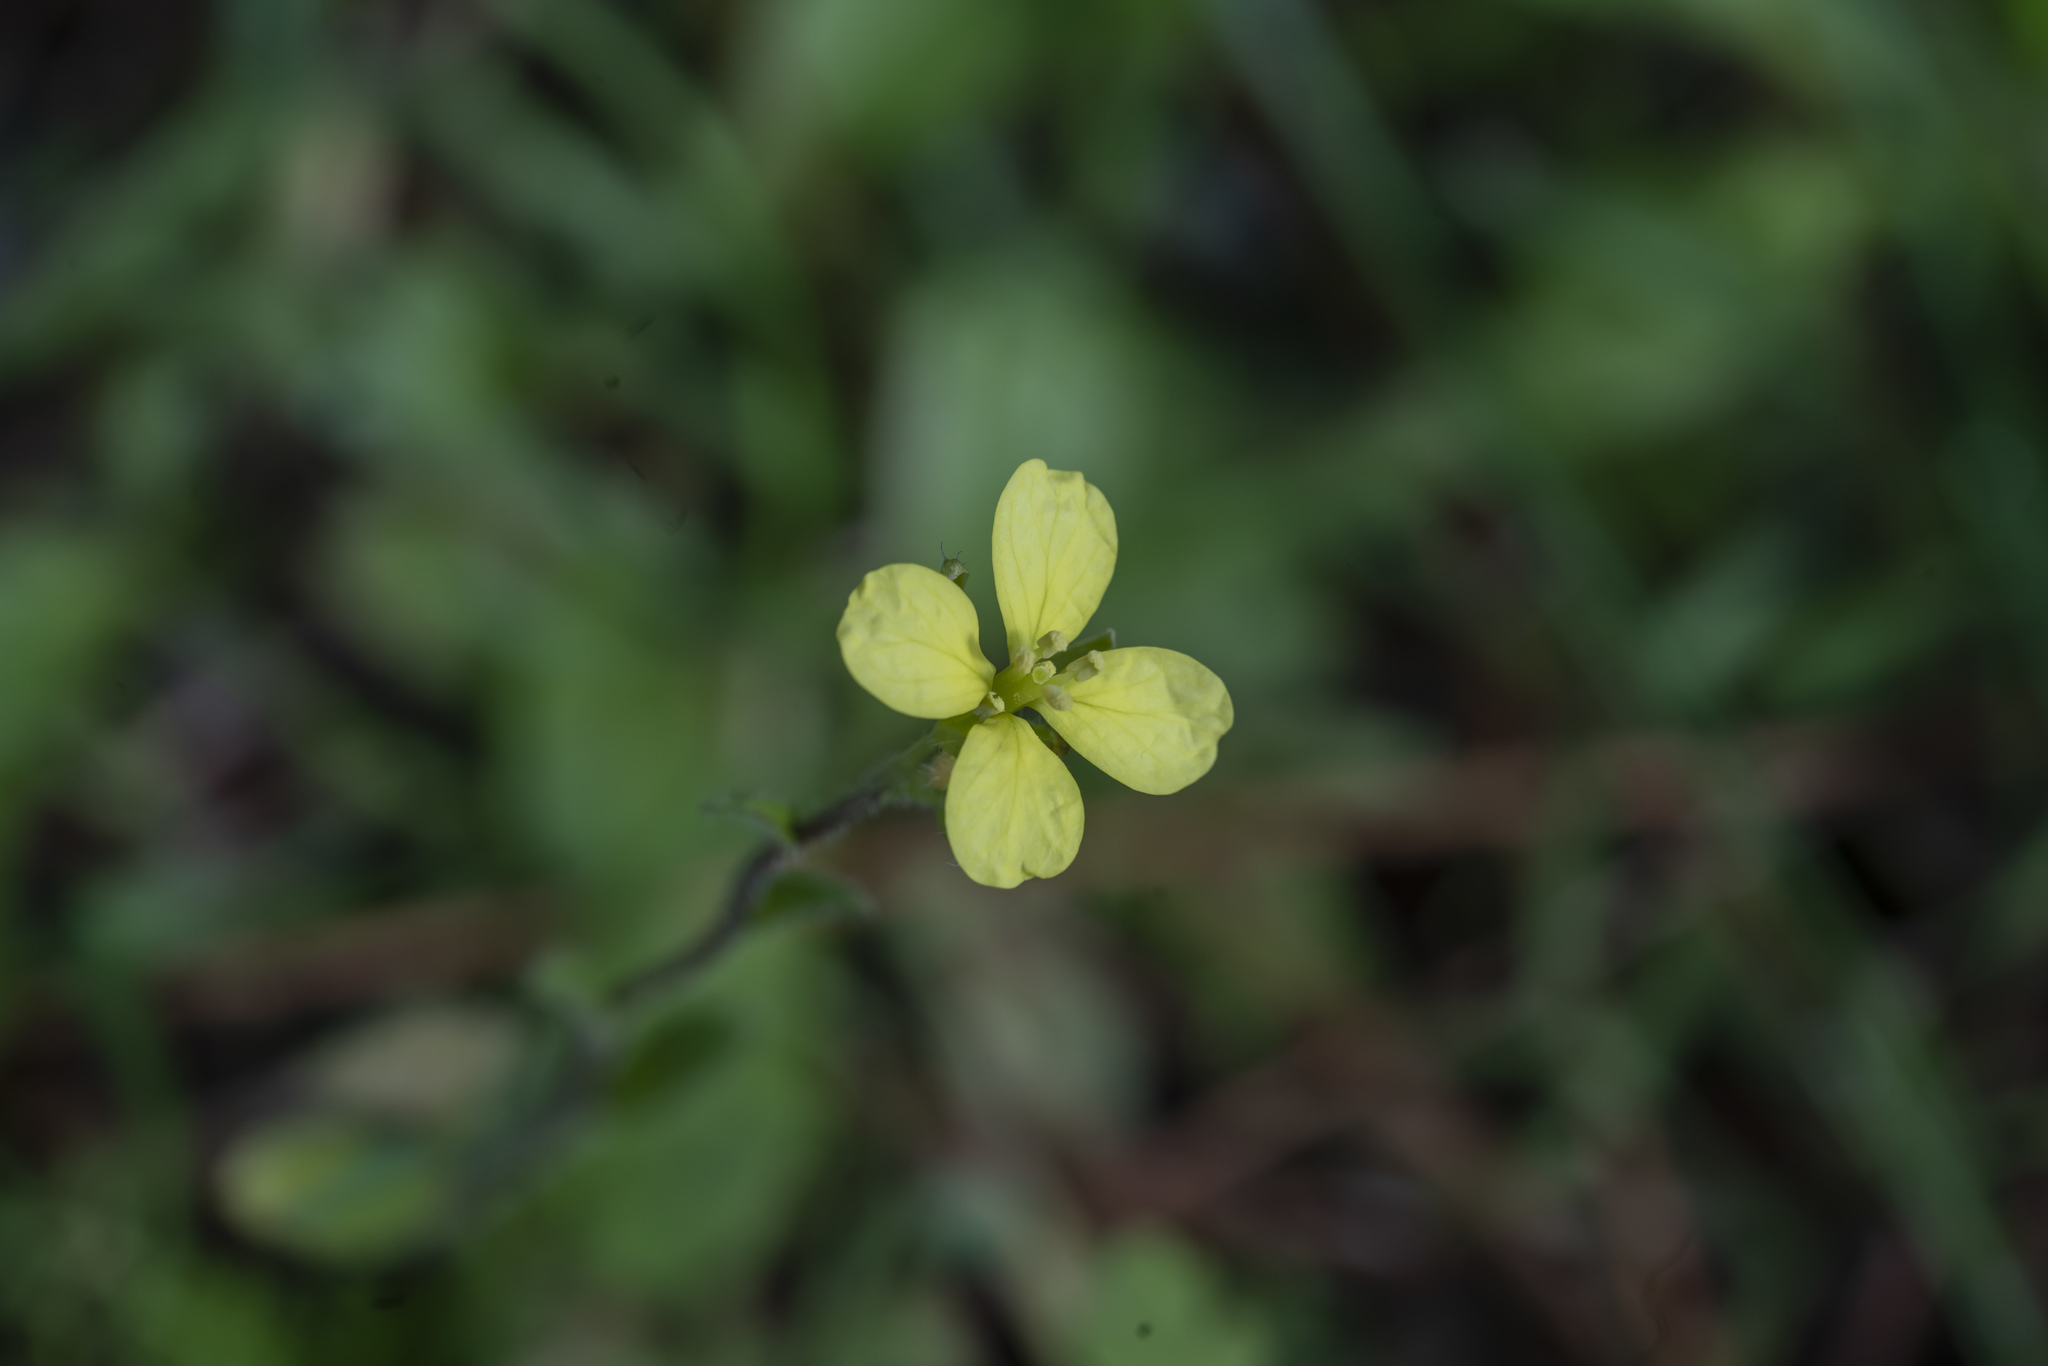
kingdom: Plantae
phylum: Tracheophyta
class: Magnoliopsida
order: Brassicales
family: Brassicaceae
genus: Sinapis
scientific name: Sinapis
